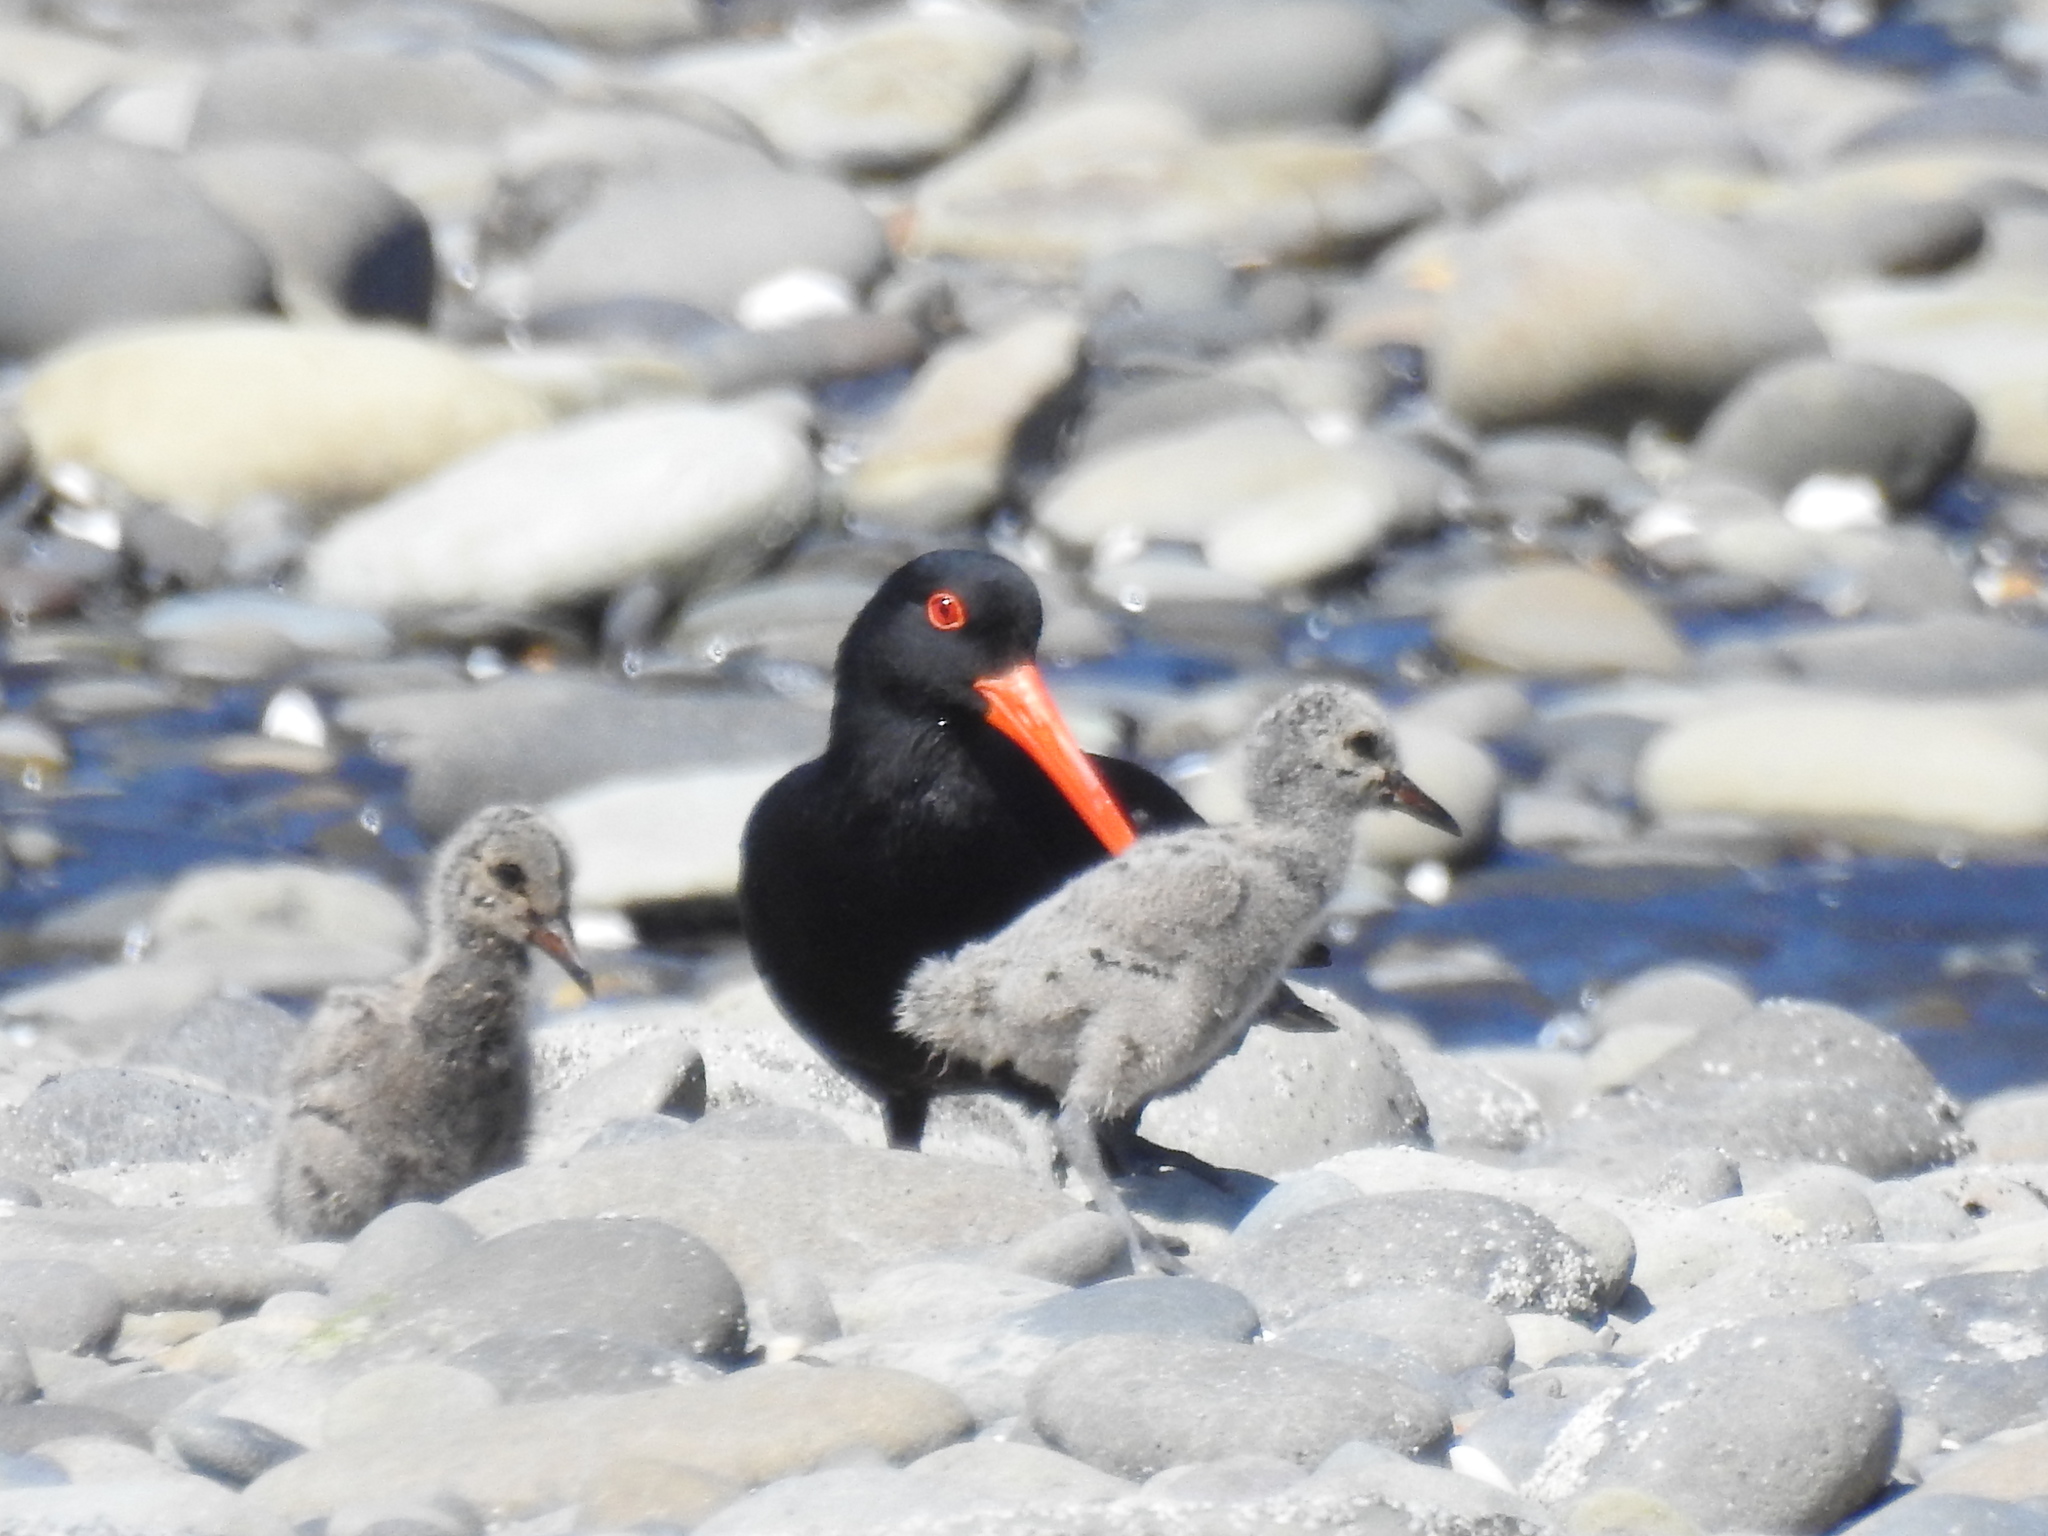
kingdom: Animalia
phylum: Chordata
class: Aves
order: Charadriiformes
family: Haematopodidae
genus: Haematopus
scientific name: Haematopus unicolor
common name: Variable oystercatcher
